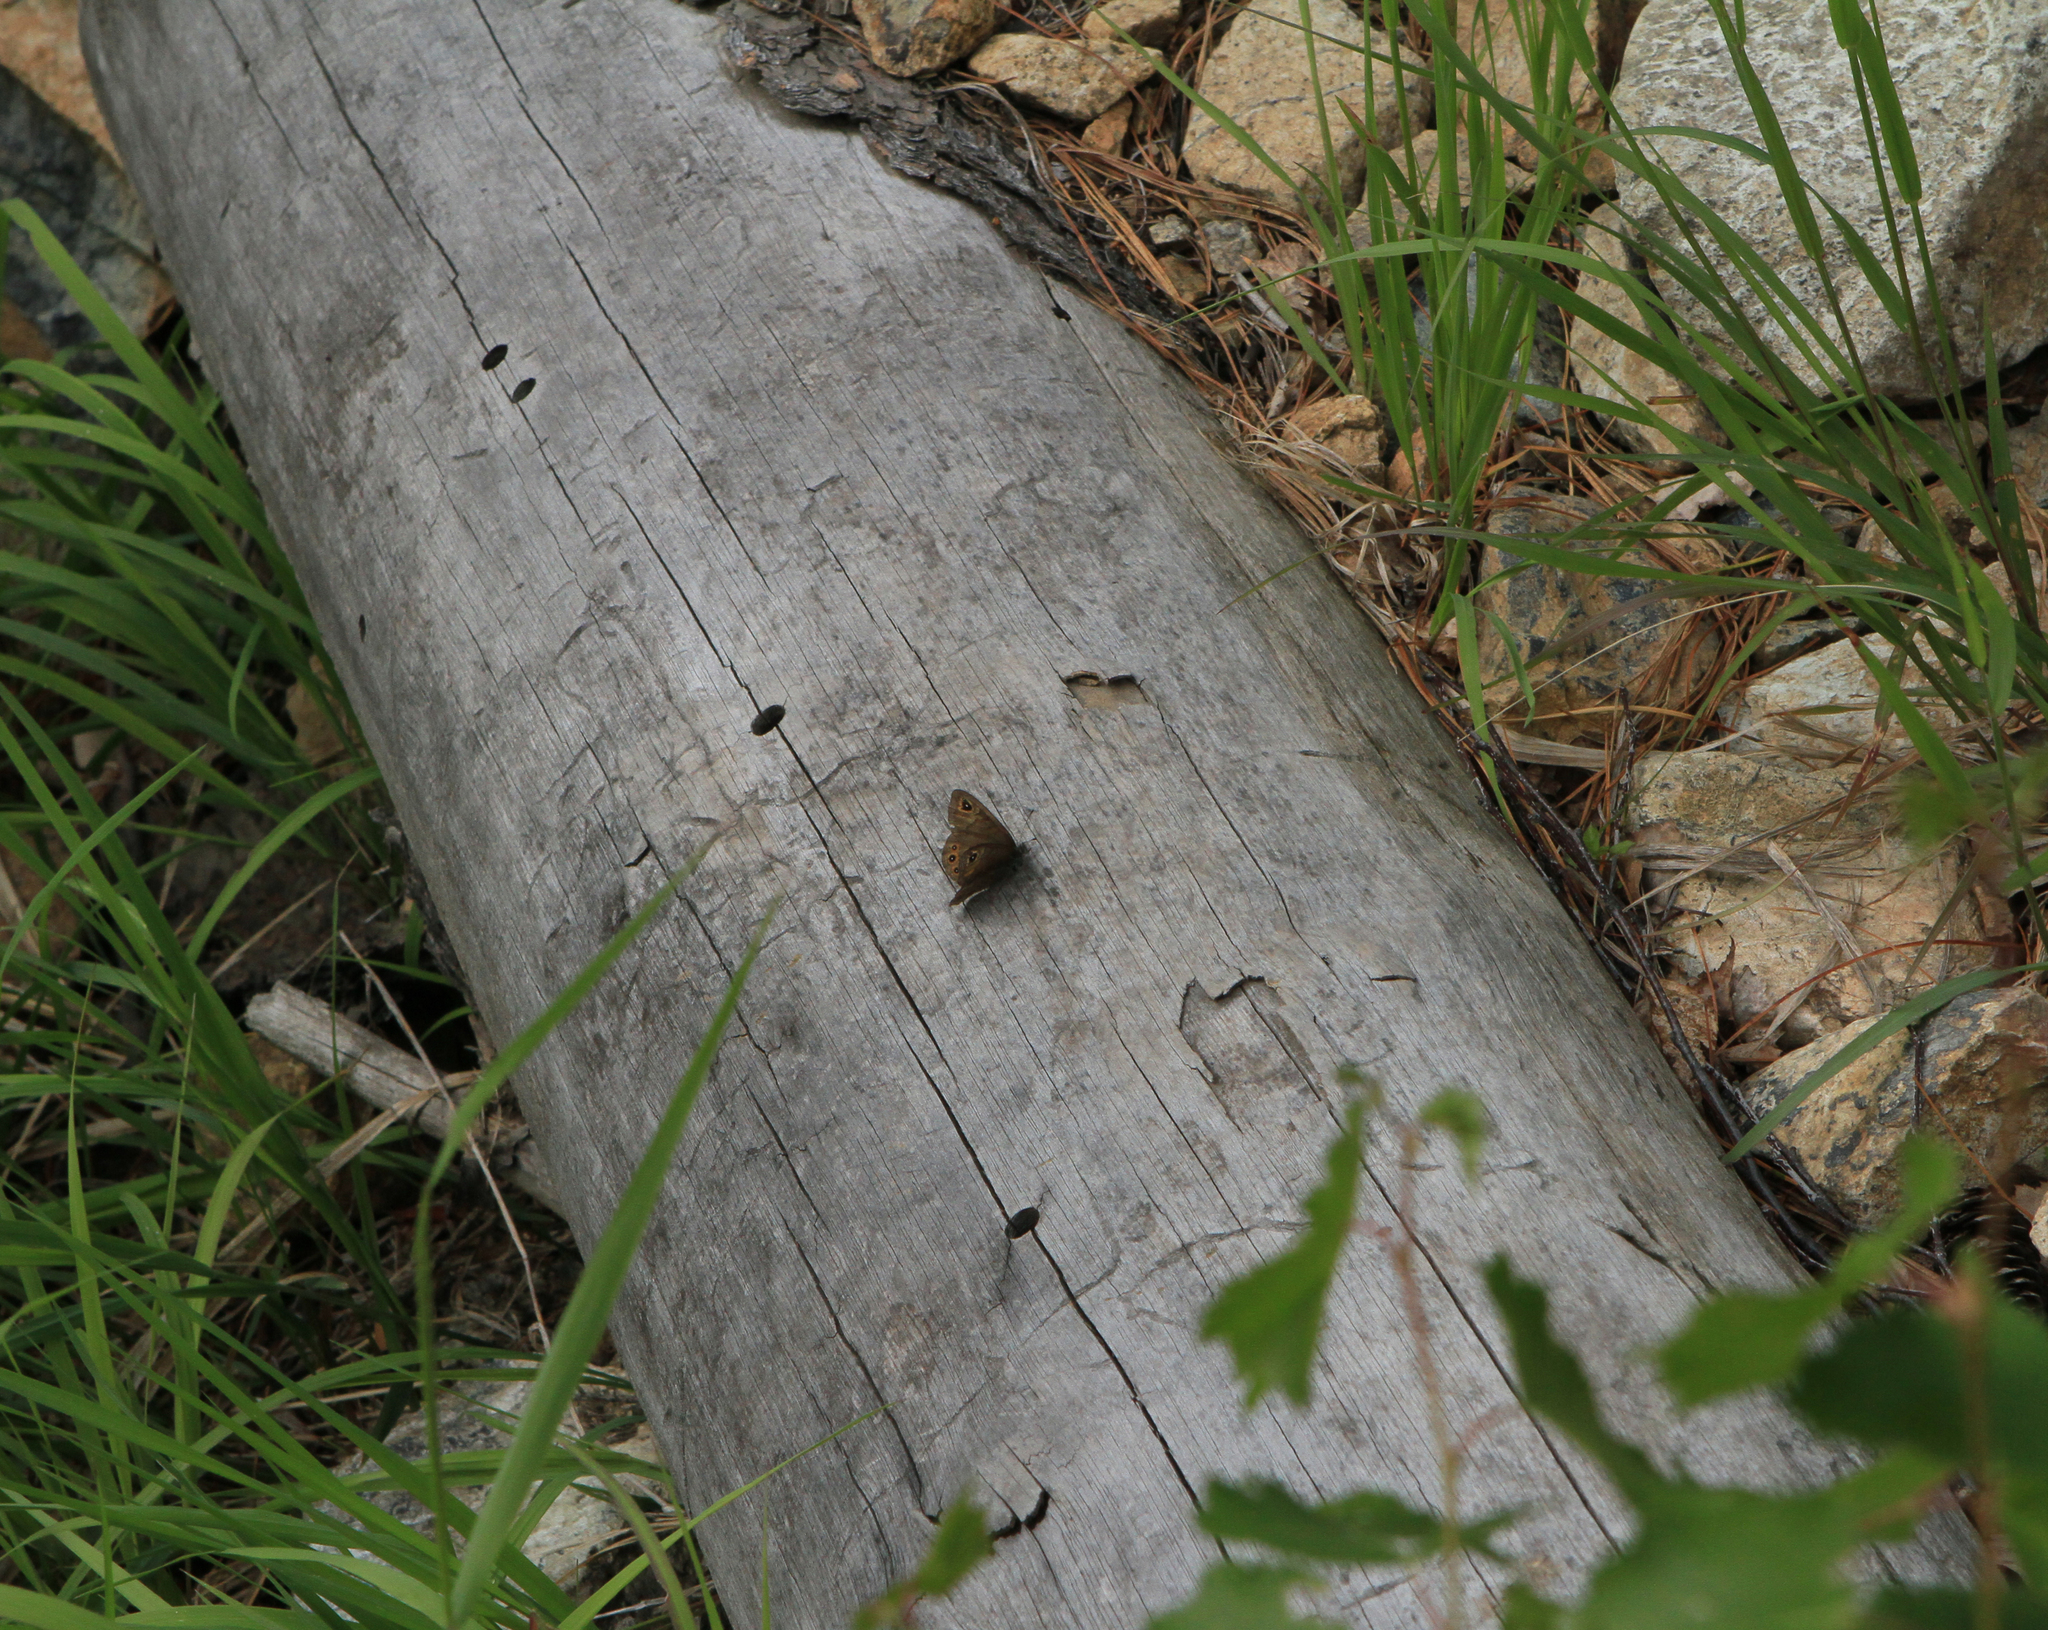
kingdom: Animalia
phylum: Arthropoda
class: Insecta
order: Lepidoptera
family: Nymphalidae
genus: Pararge
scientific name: Pararge petropolitana
